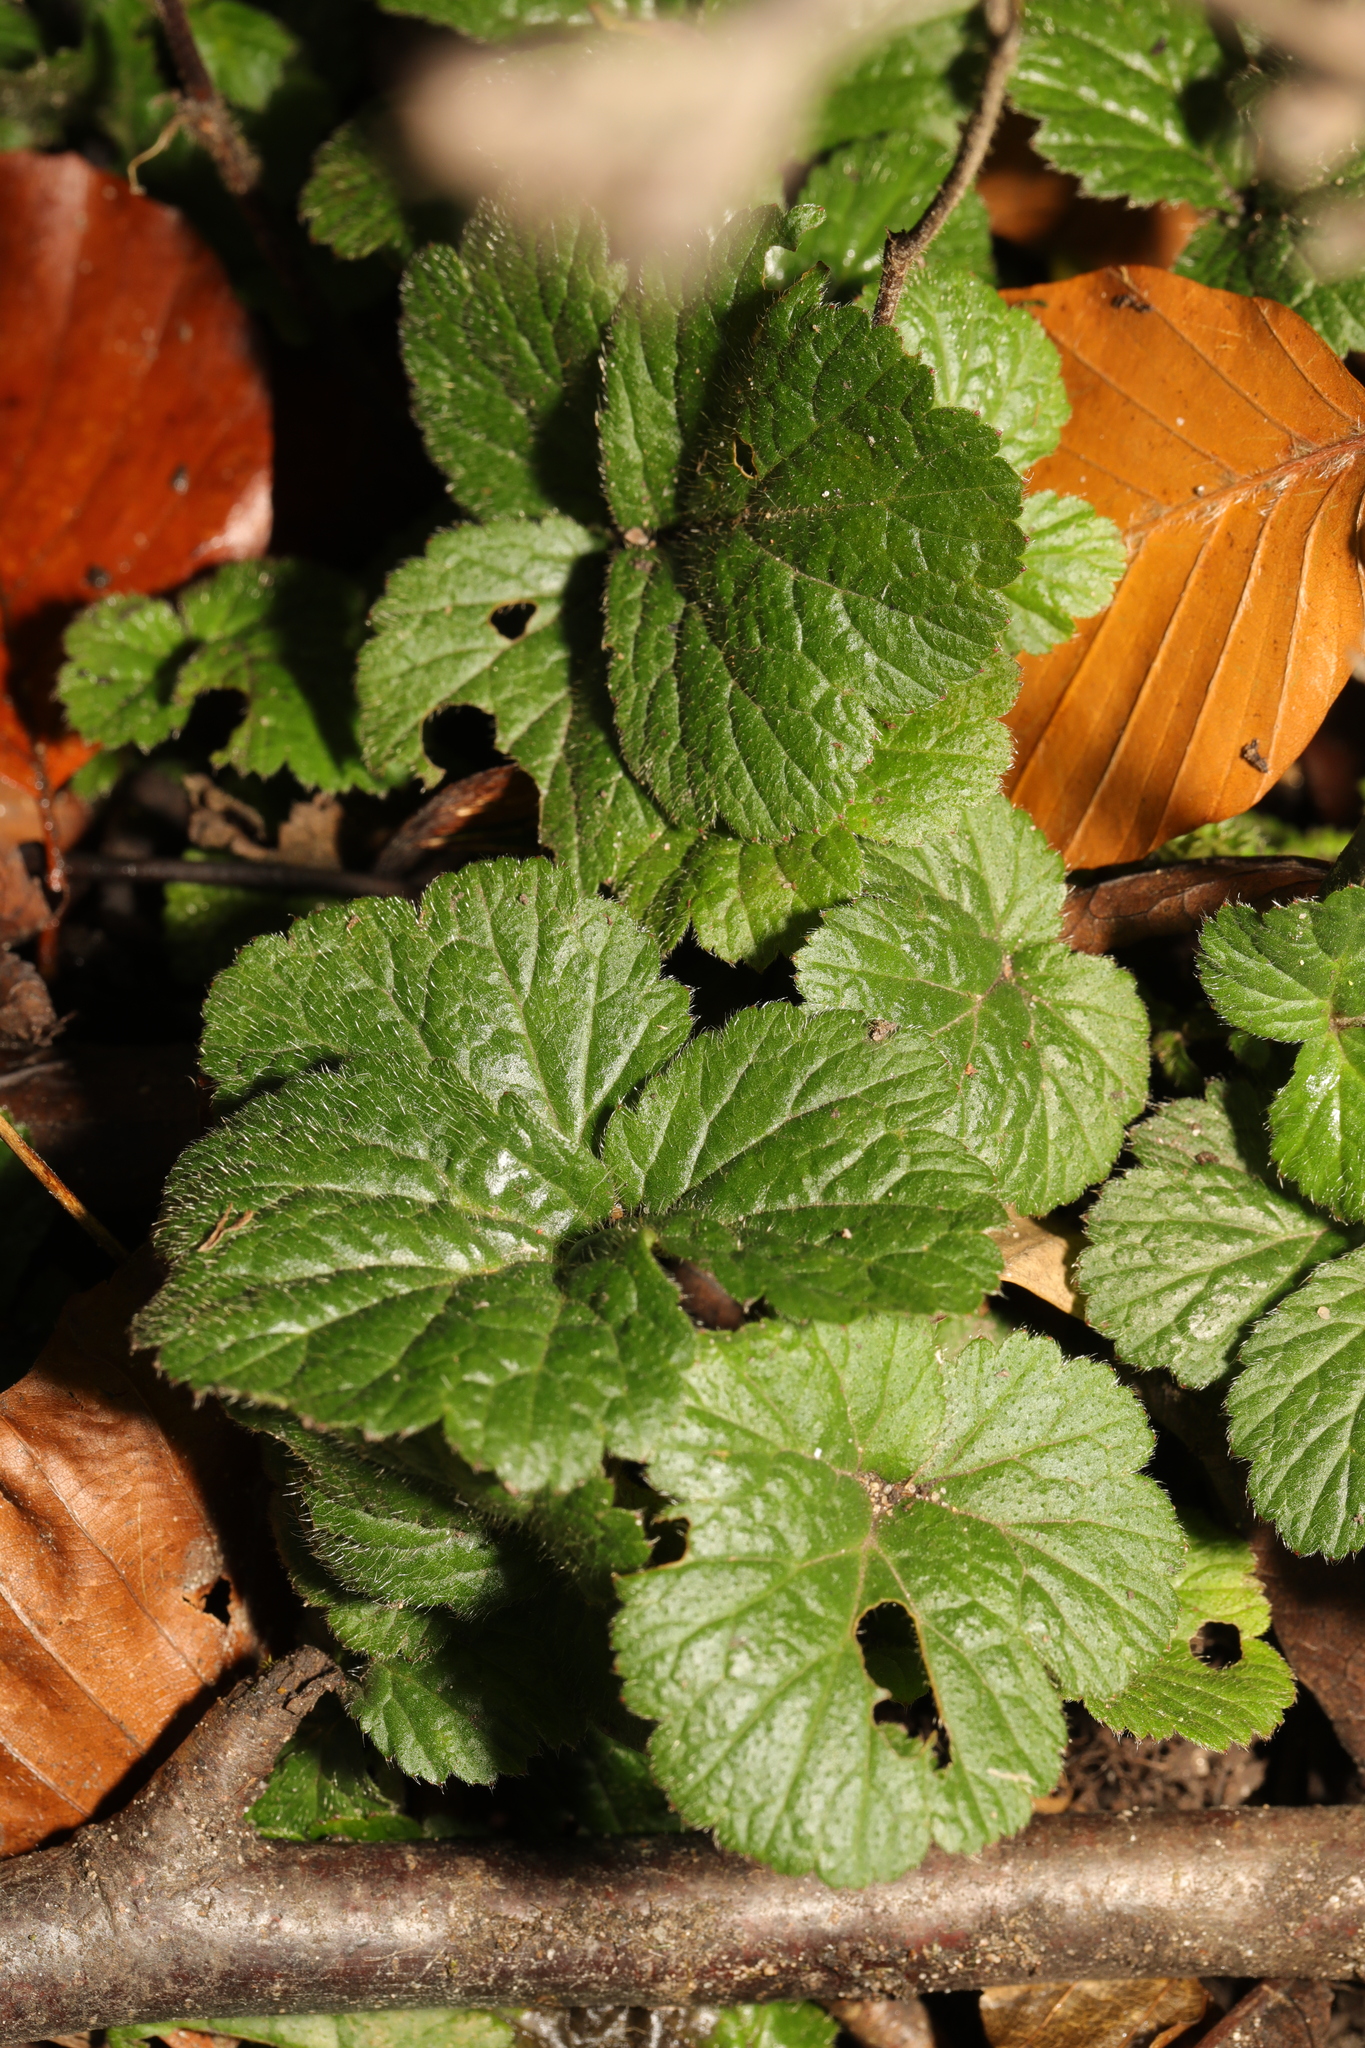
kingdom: Plantae
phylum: Tracheophyta
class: Magnoliopsida
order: Rosales
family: Rosaceae
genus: Geum
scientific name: Geum urbanum
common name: Wood avens
